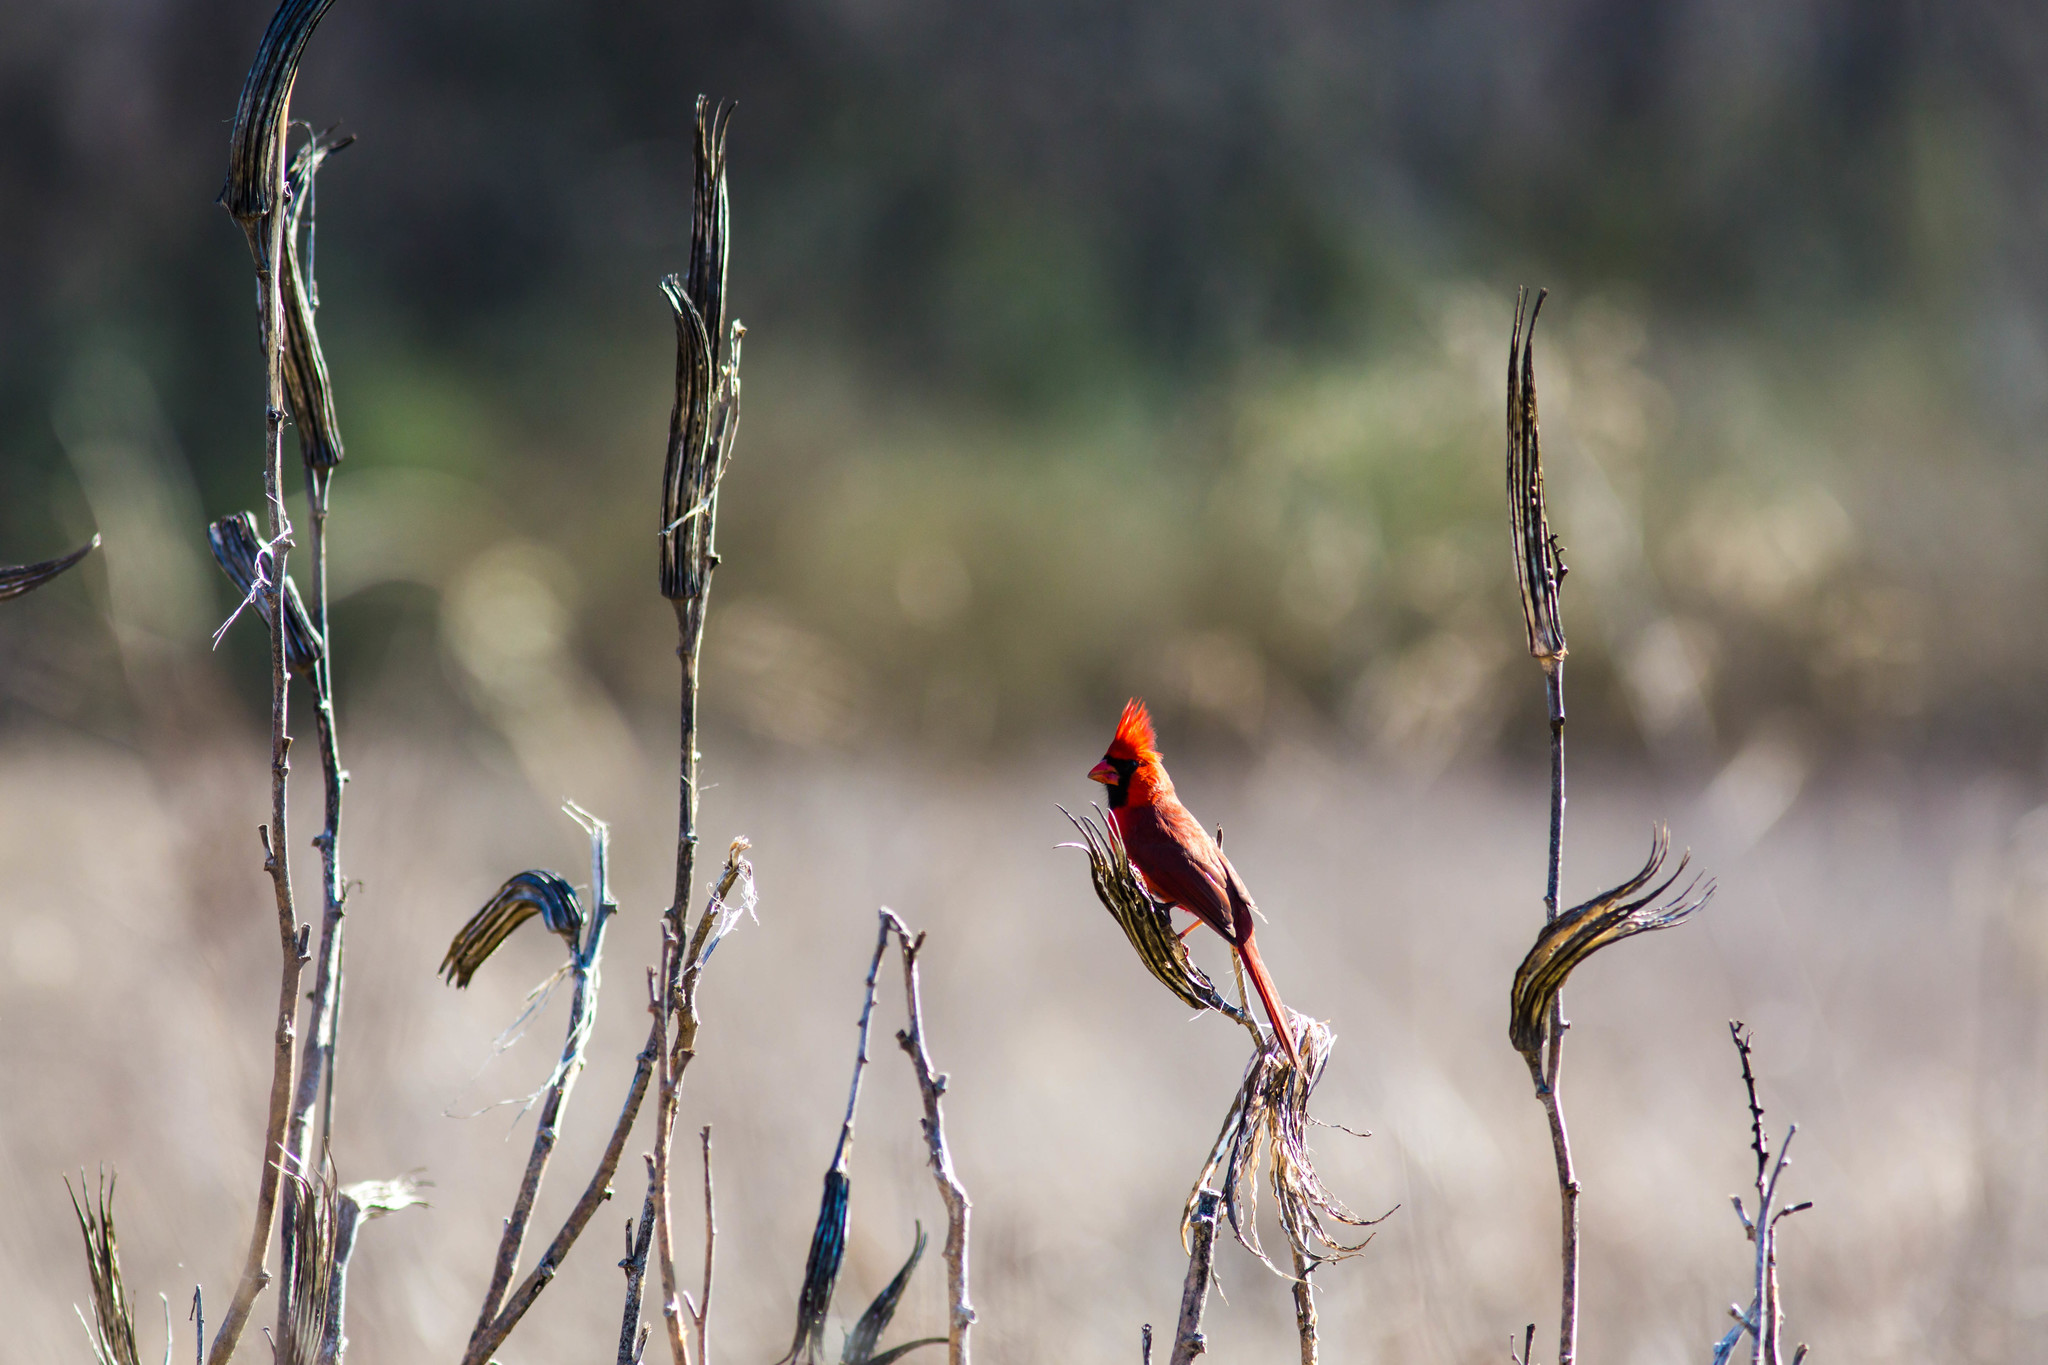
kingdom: Animalia
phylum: Chordata
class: Aves
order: Passeriformes
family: Cardinalidae
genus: Cardinalis
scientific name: Cardinalis cardinalis
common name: Northern cardinal
